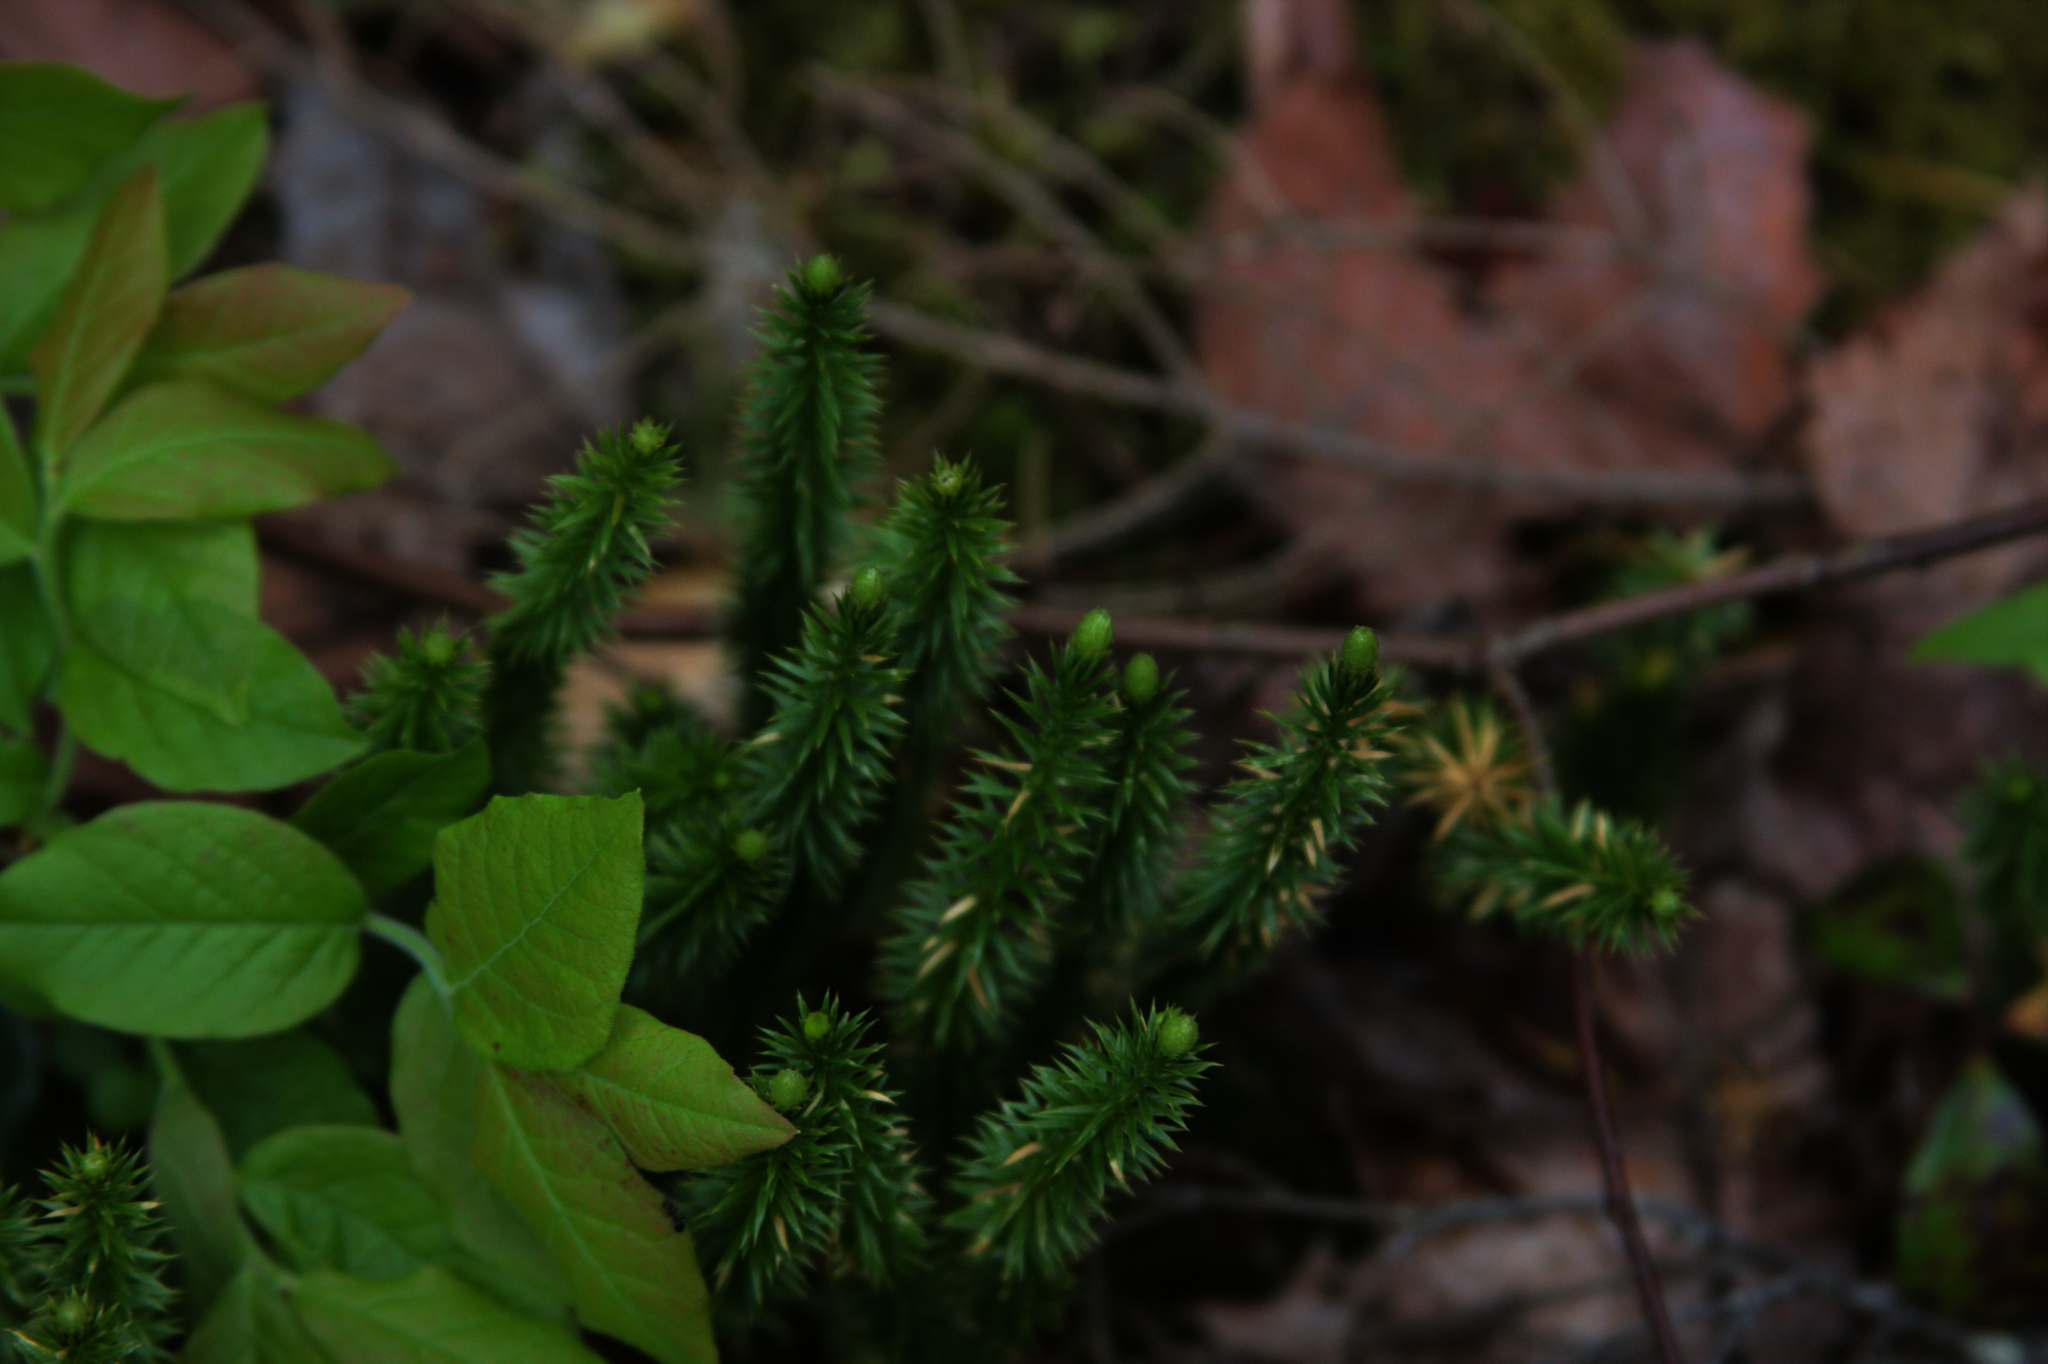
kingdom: Plantae
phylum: Tracheophyta
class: Lycopodiopsida
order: Lycopodiales
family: Lycopodiaceae
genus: Spinulum
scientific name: Spinulum annotinum
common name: Interrupted club-moss
